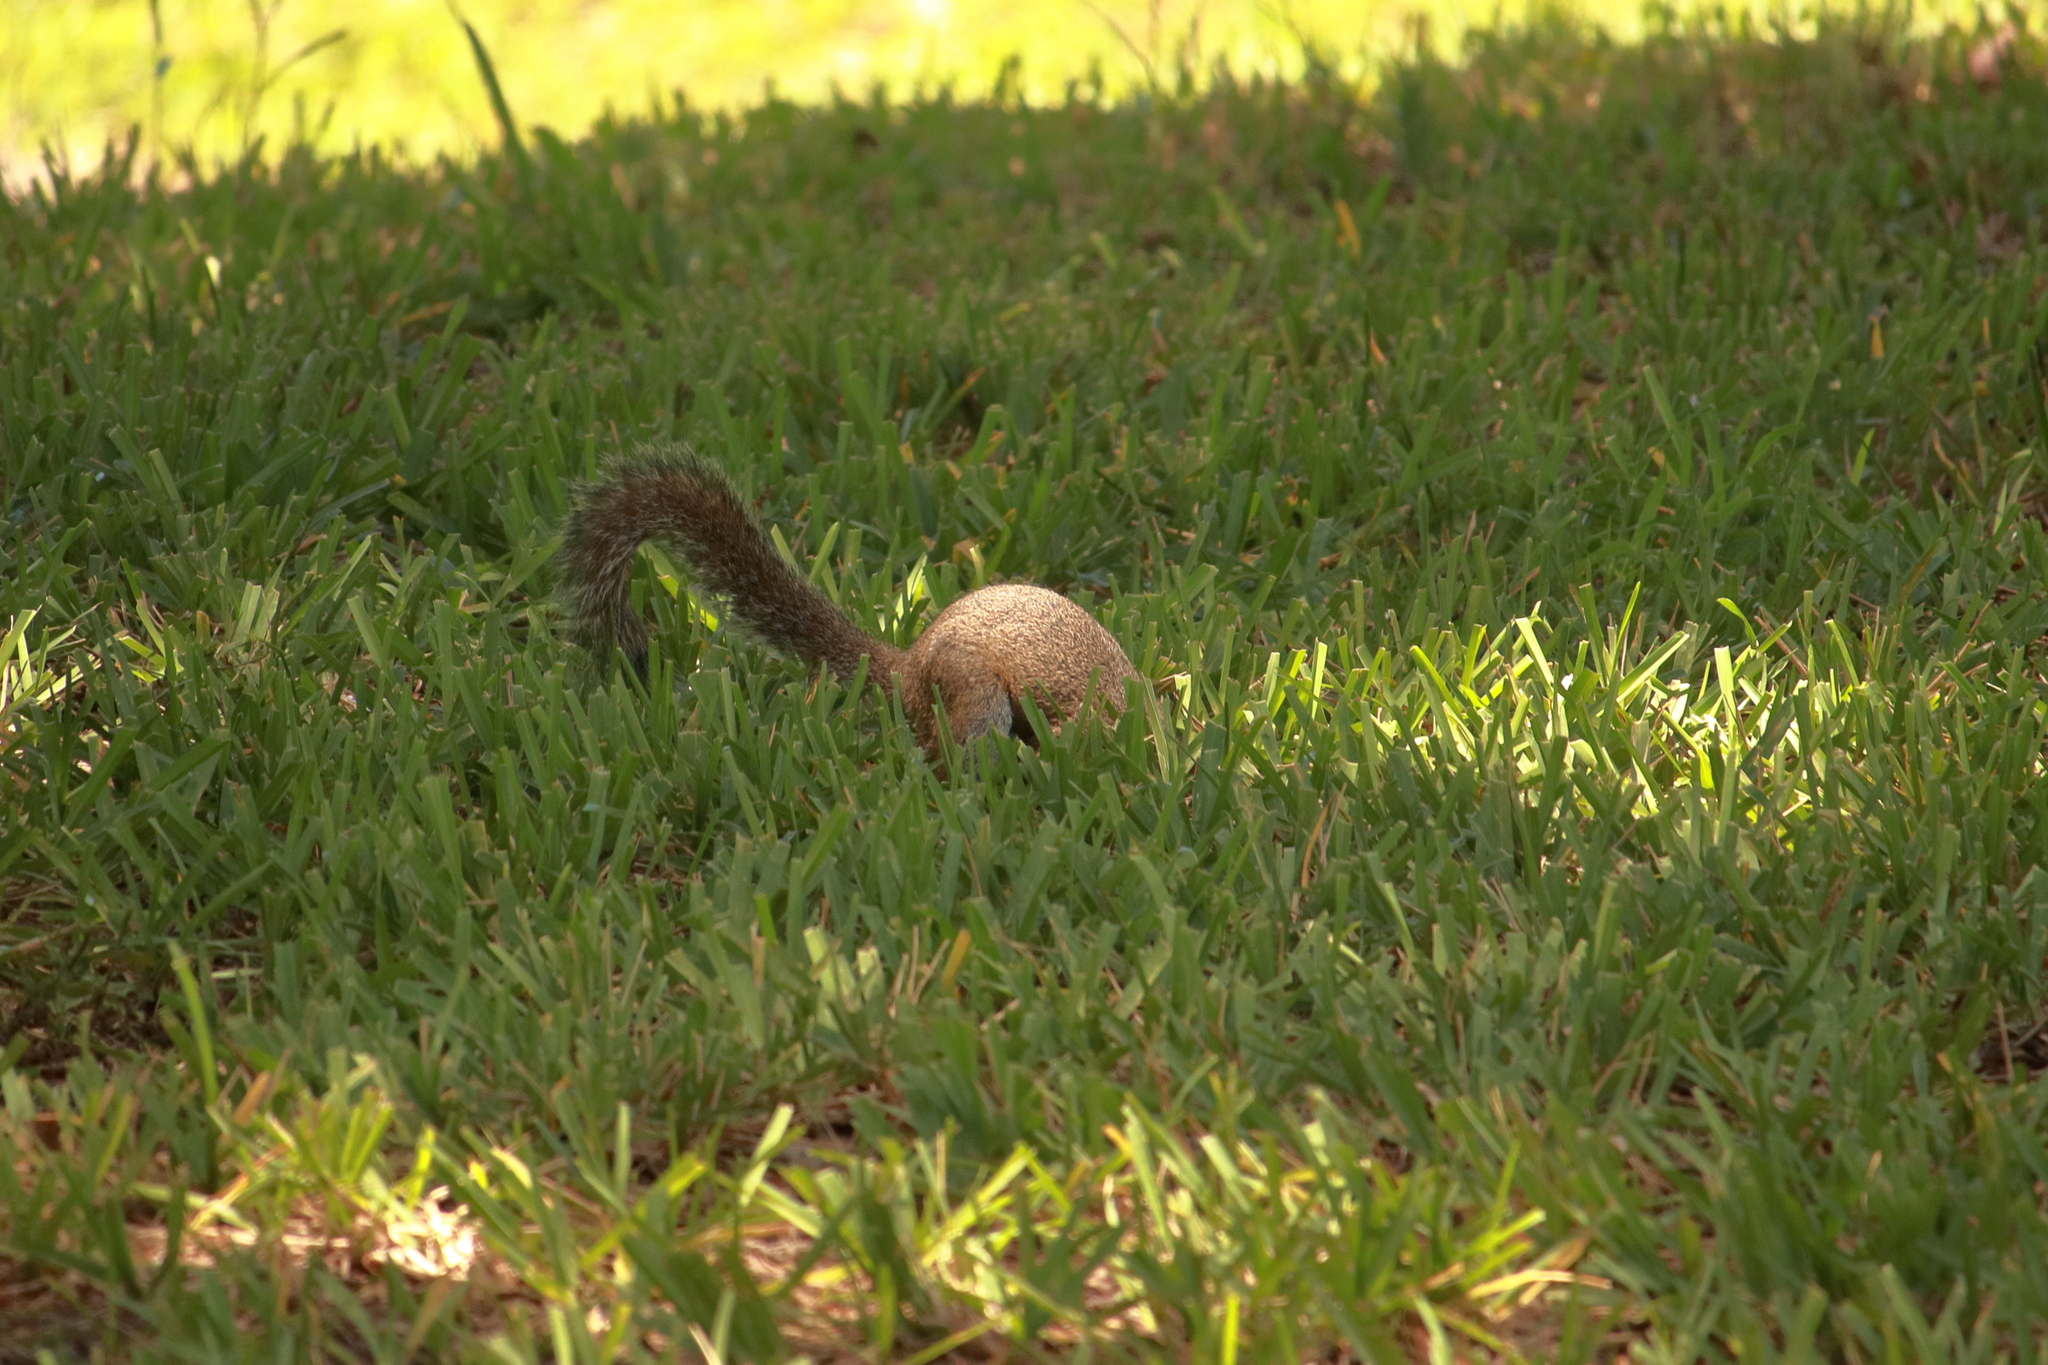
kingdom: Animalia
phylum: Chordata
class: Mammalia
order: Rodentia
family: Sciuridae
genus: Sciurus
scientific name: Sciurus carolinensis
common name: Eastern gray squirrel
